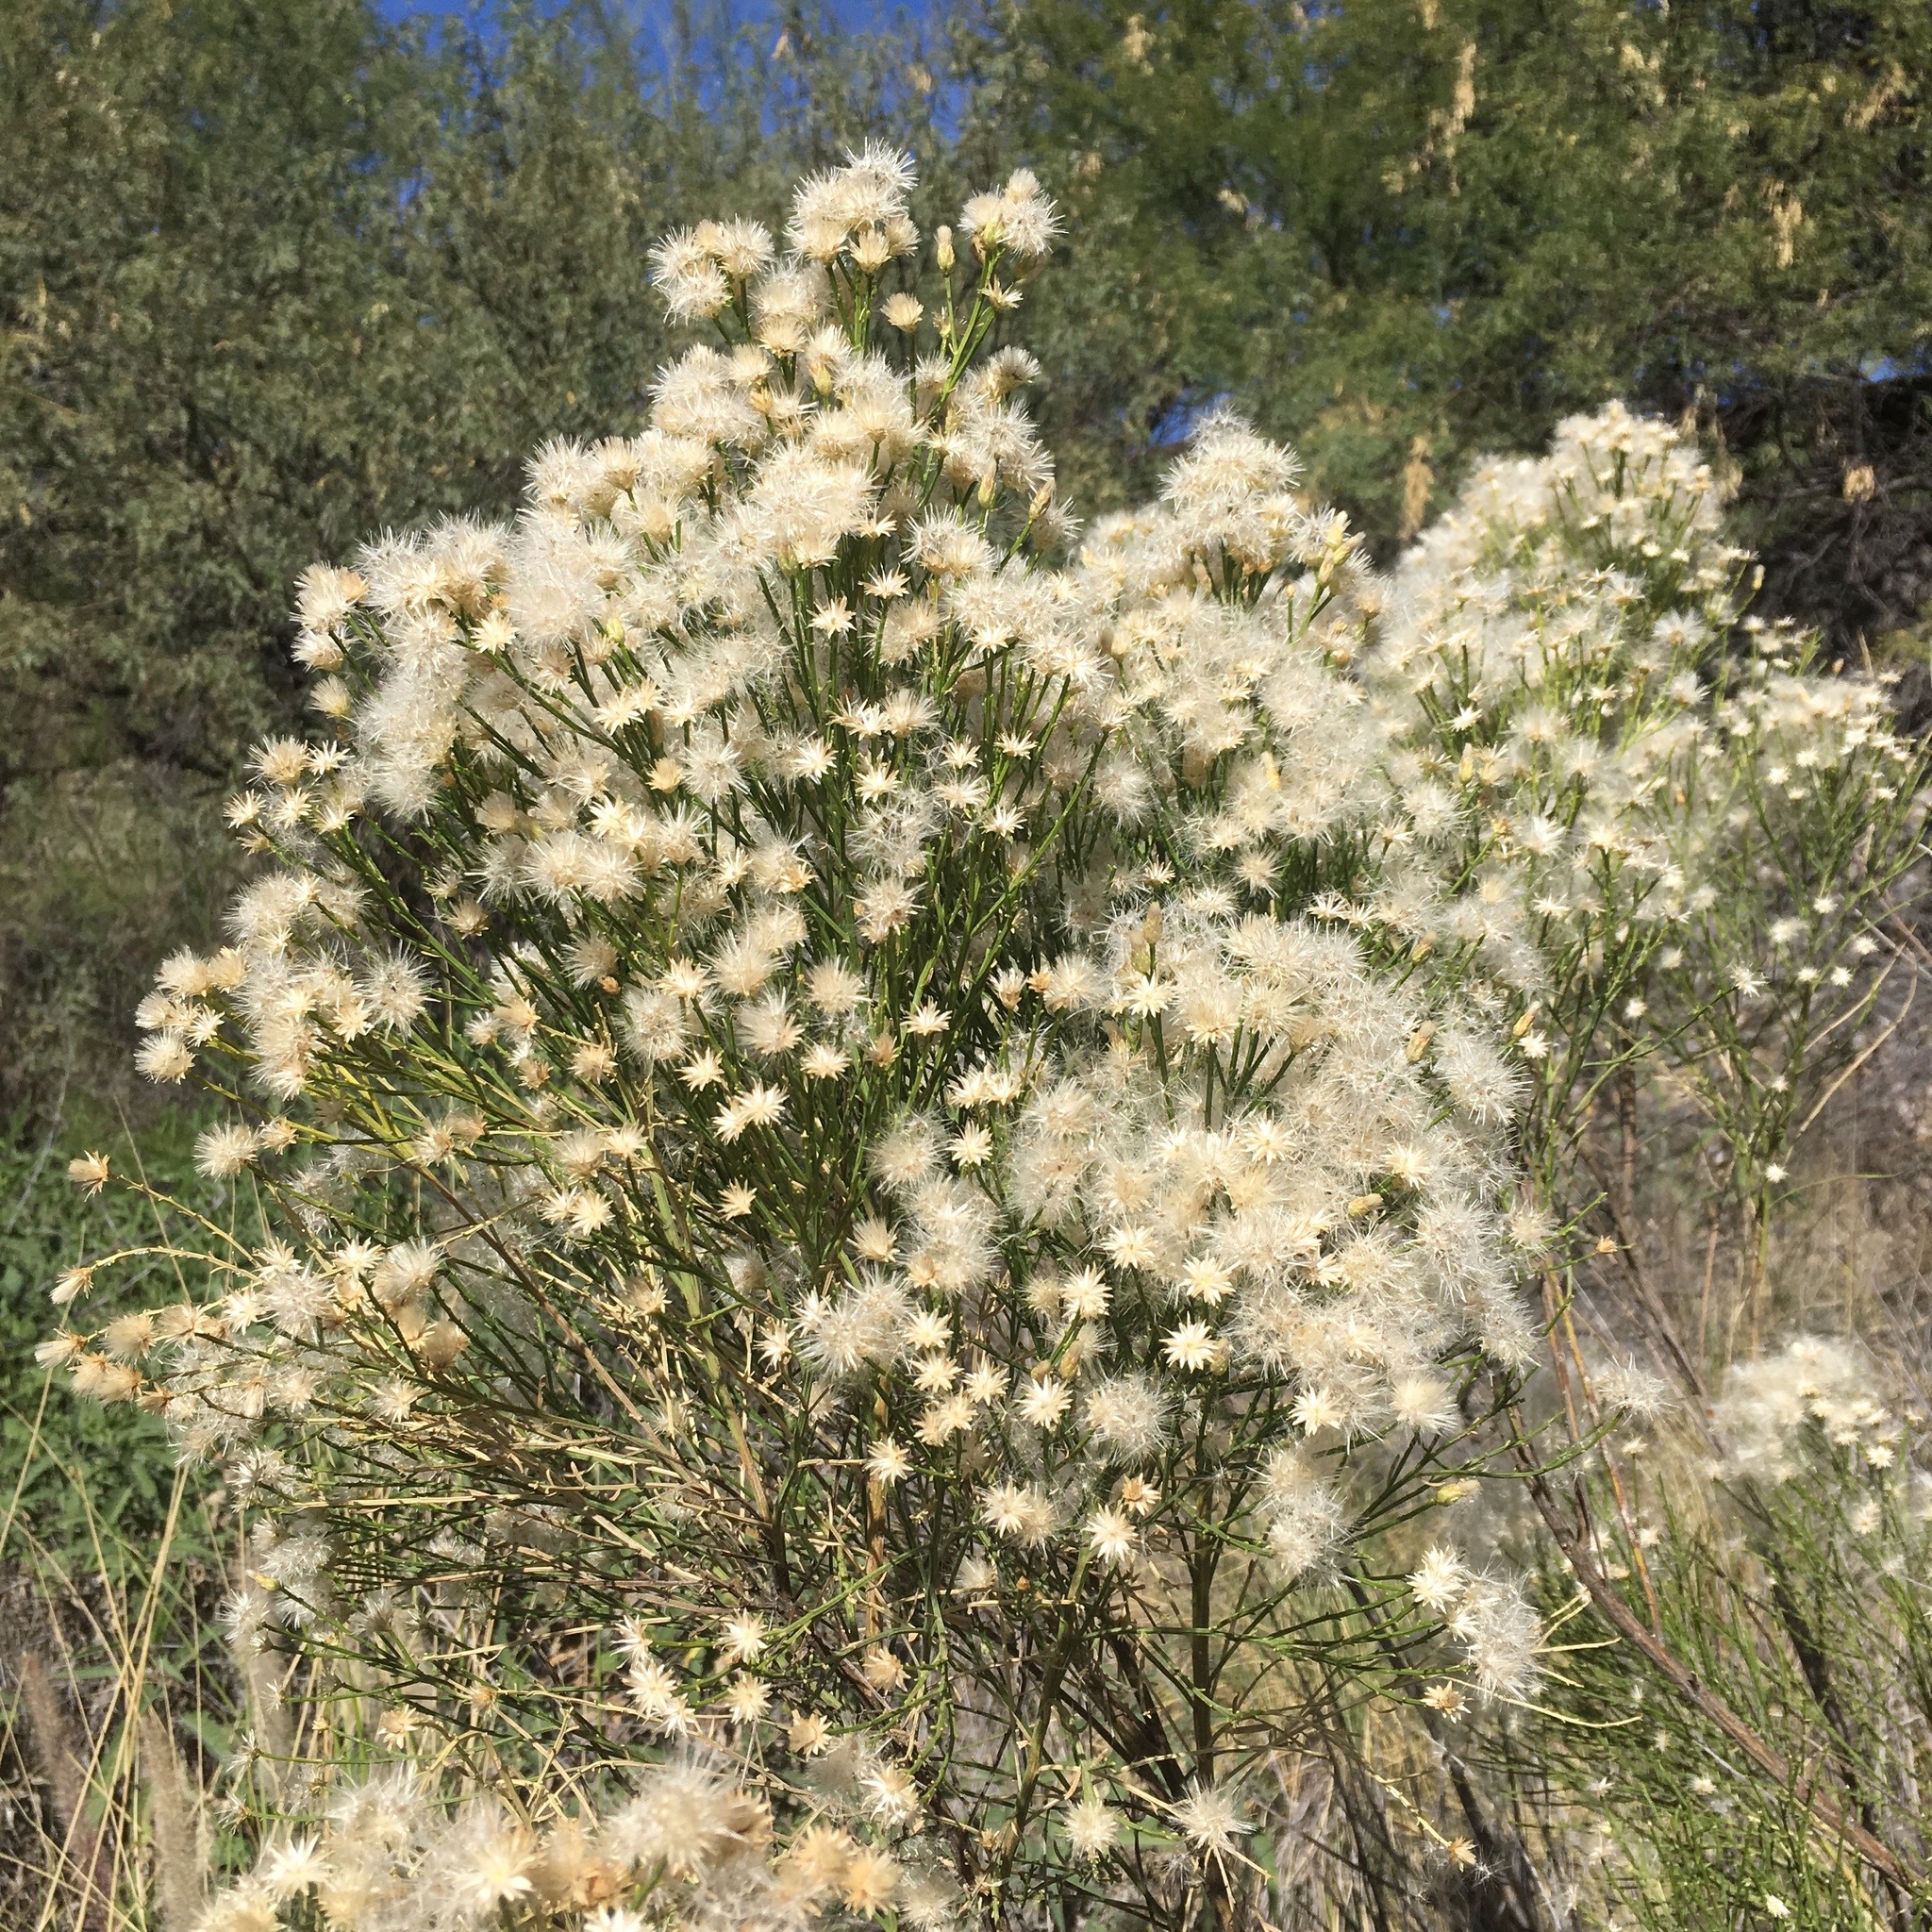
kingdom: Plantae
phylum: Tracheophyta
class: Magnoliopsida
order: Asterales
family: Asteraceae
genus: Baccharis
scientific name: Baccharis sarothroides
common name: Desert-broom
